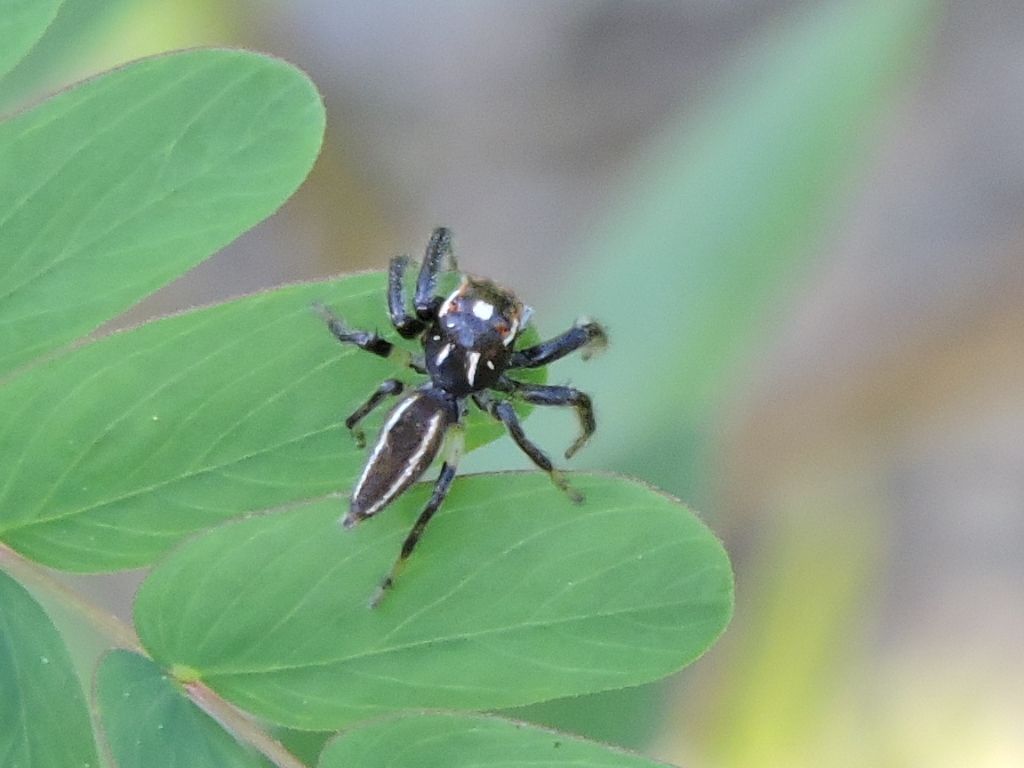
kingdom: Animalia
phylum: Arthropoda
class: Arachnida
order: Araneae
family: Salticidae
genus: Colonus
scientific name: Colonus sylvanus
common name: Jumping spiders
